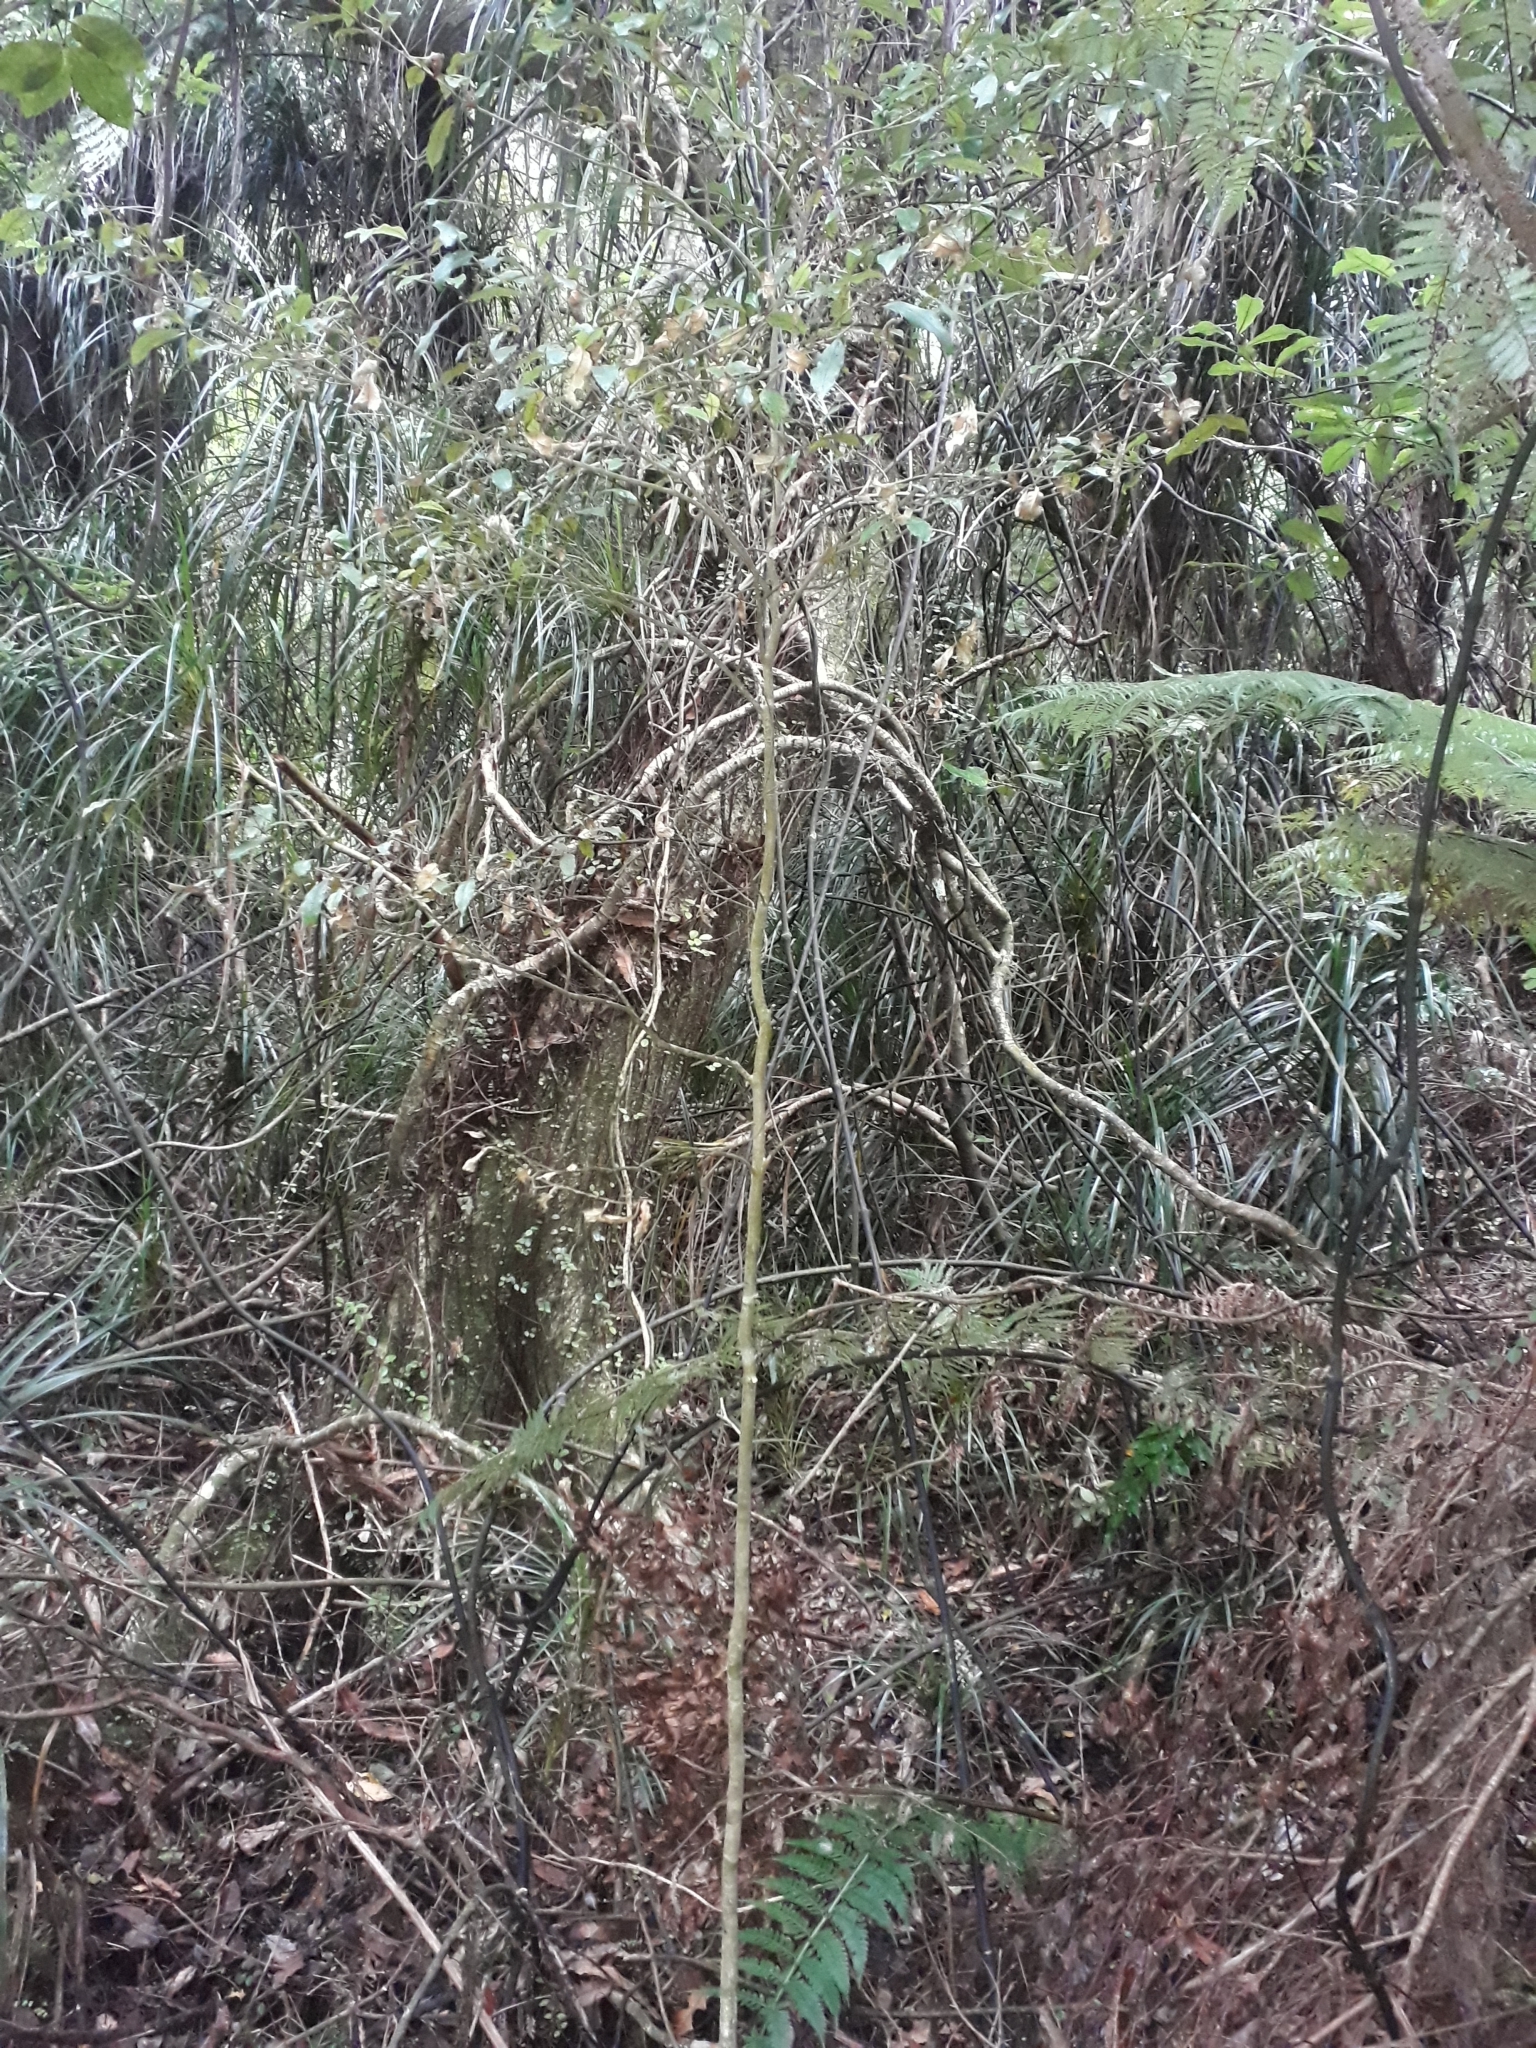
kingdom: Plantae
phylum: Tracheophyta
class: Magnoliopsida
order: Myrtales
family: Myrtaceae
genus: Syzygium
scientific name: Syzygium maire
